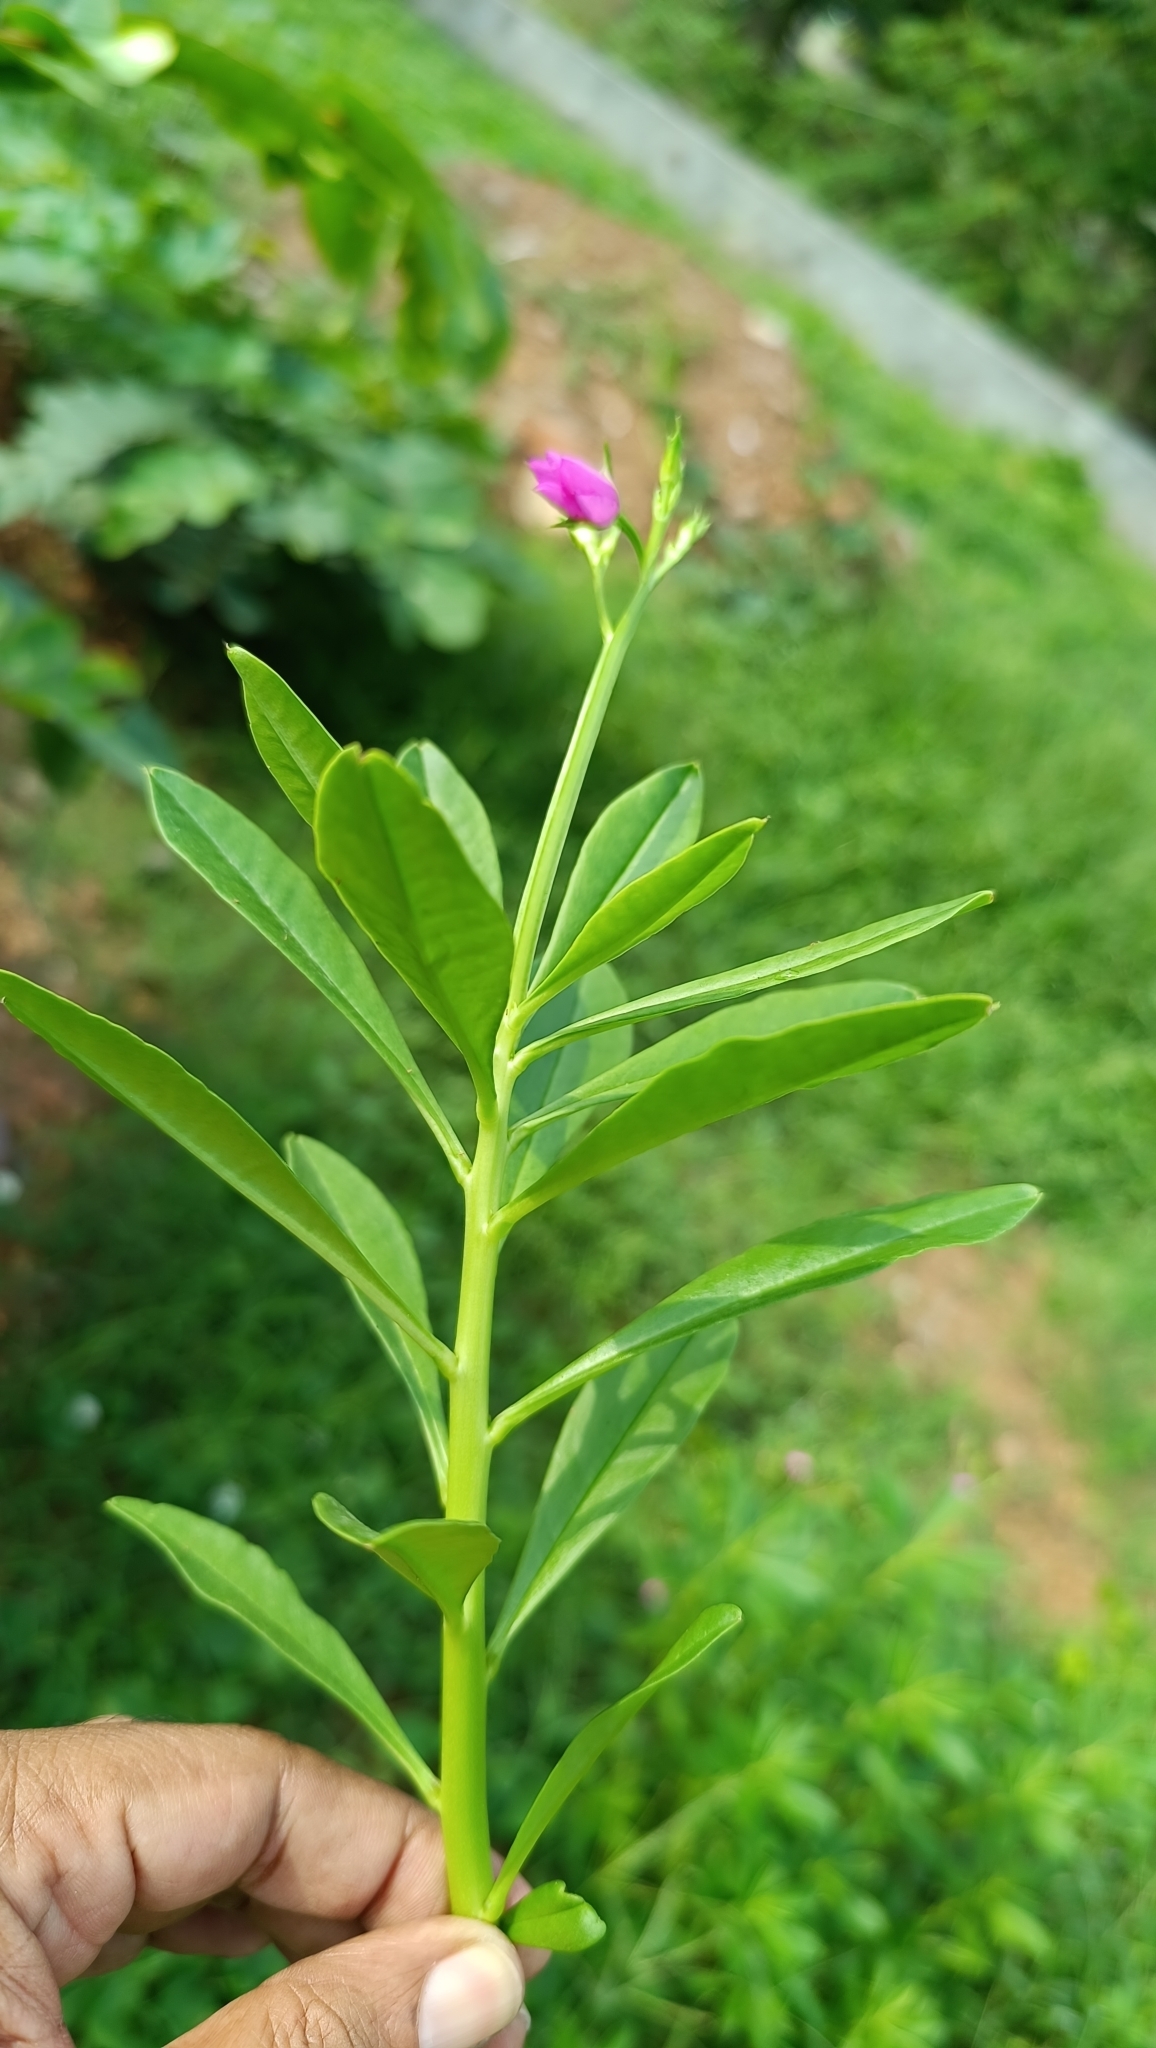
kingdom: Plantae
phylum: Tracheophyta
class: Magnoliopsida
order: Caryophyllales
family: Talinaceae
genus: Talinum
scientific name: Talinum fruticosum
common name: Verdolaga-francesa
